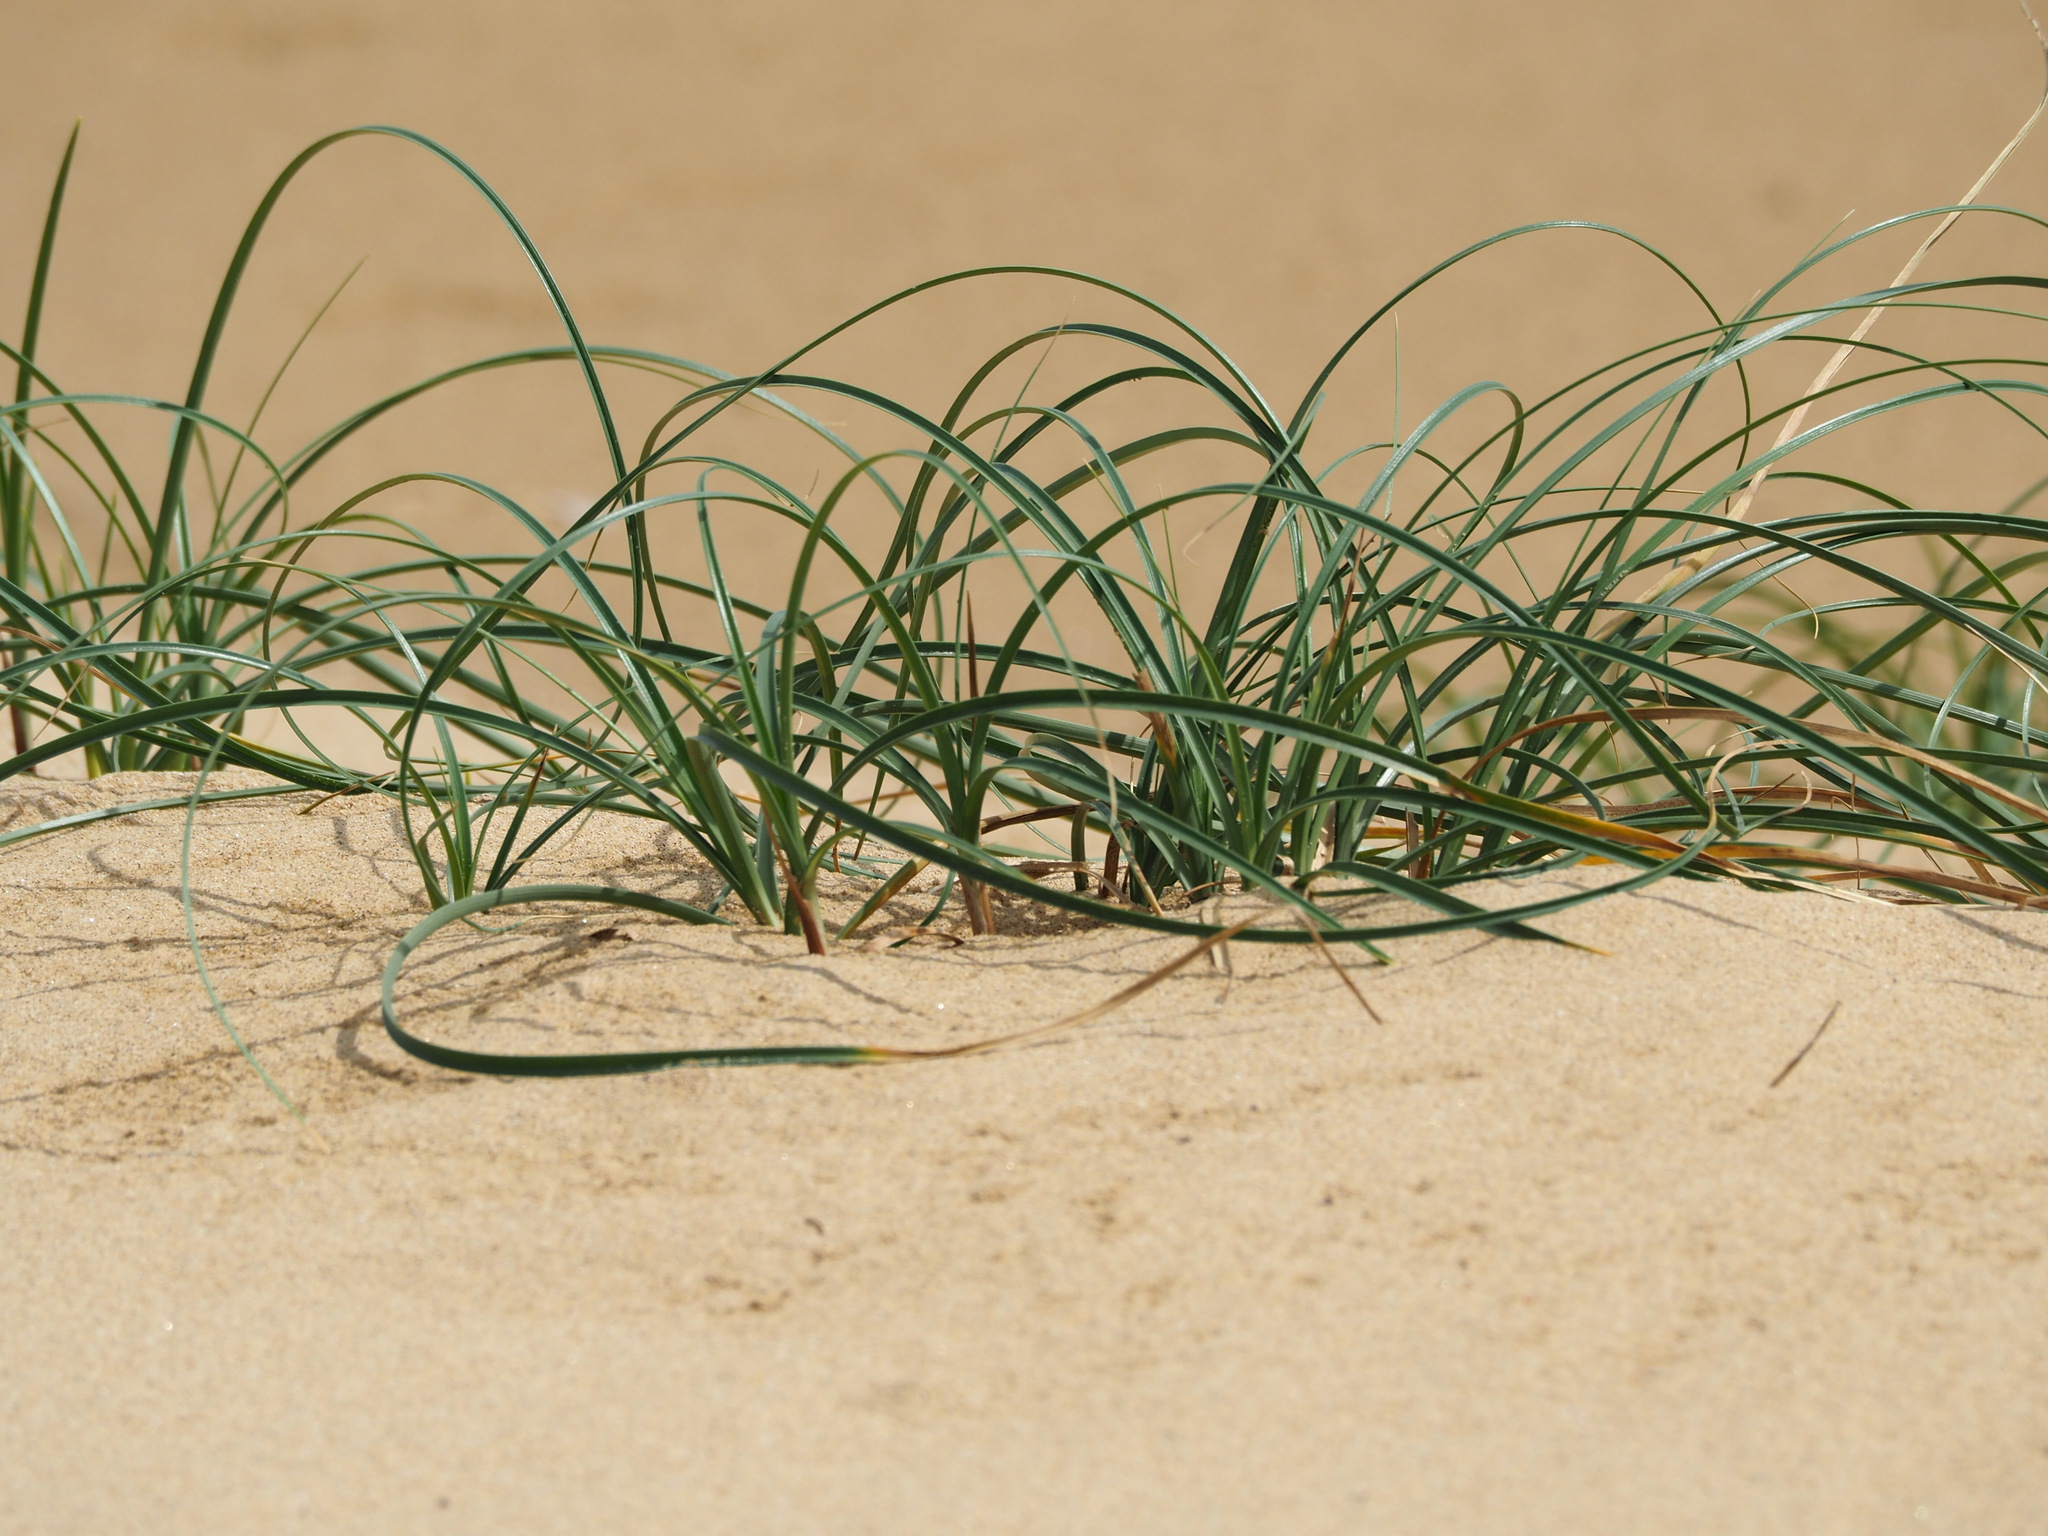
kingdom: Plantae
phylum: Tracheophyta
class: Liliopsida
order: Poales
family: Cyperaceae
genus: Carex
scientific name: Carex pumila
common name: Dwarf sedge
